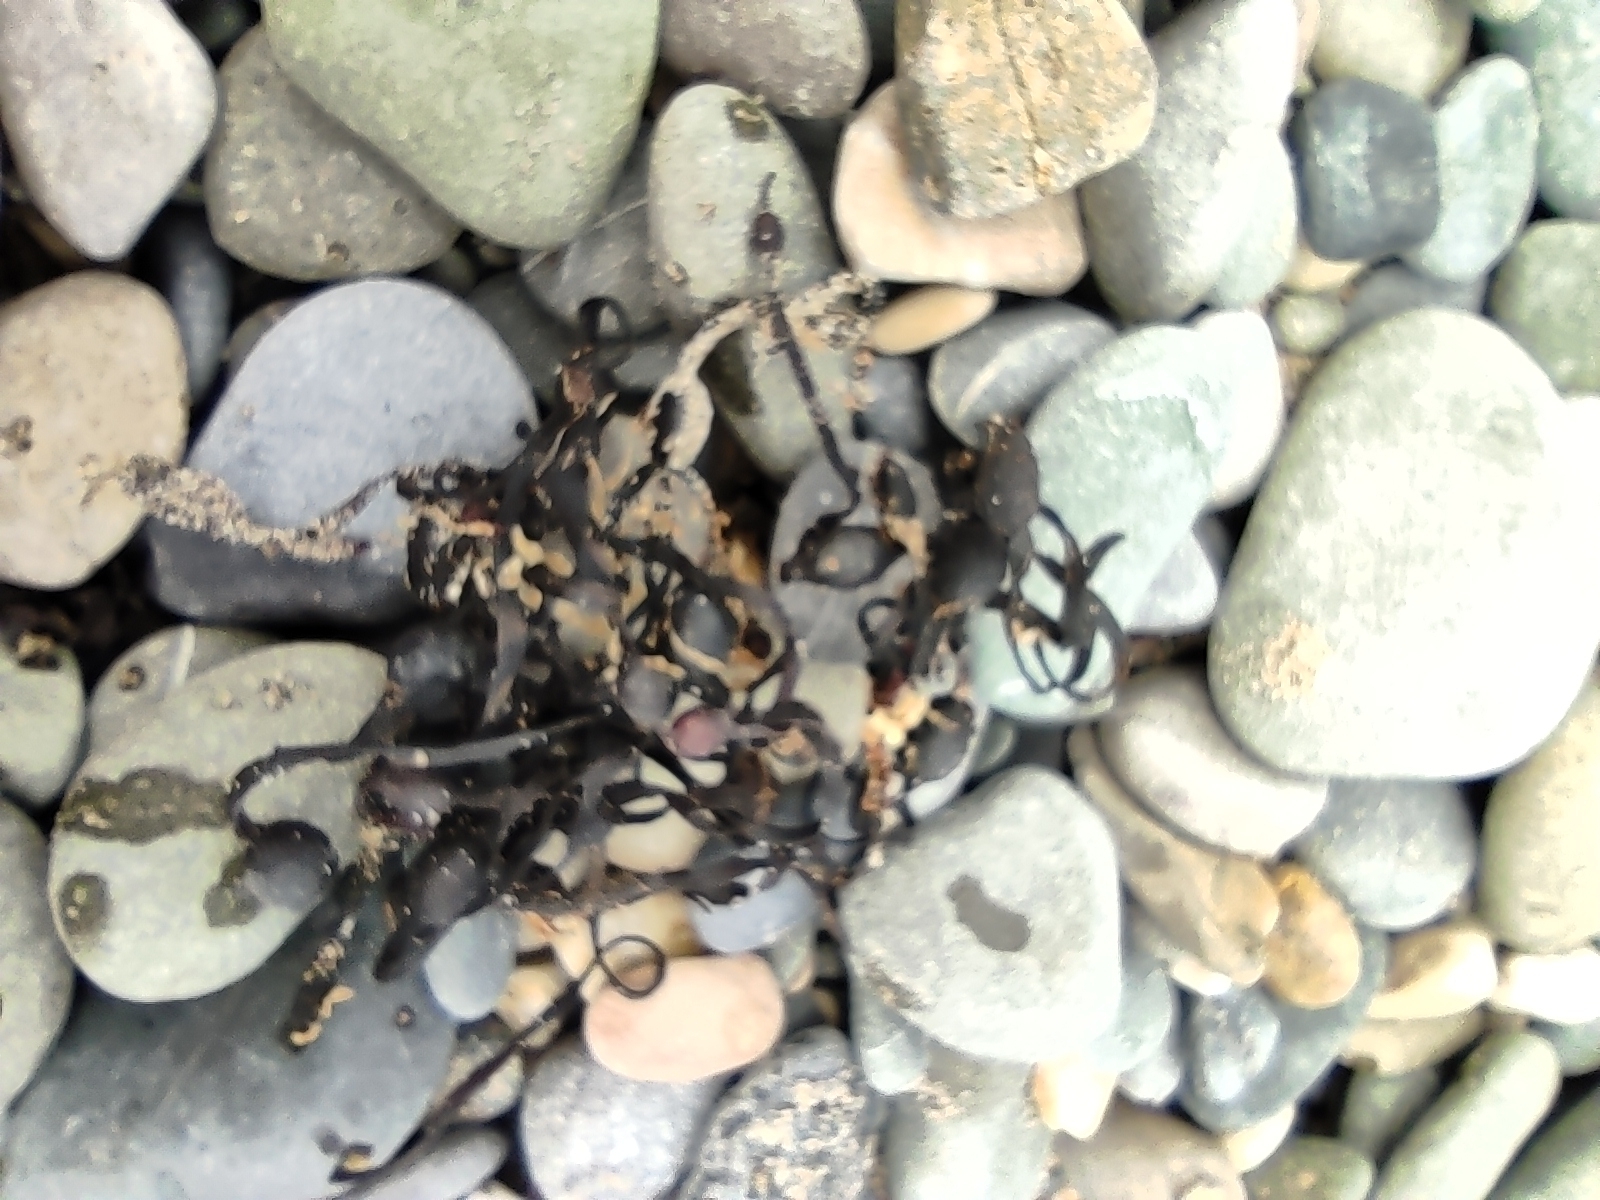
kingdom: Chromista
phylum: Ochrophyta
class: Phaeophyceae
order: Fucales
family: Fucaceae
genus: Ascophyllum
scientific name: Ascophyllum nodosum
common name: Knotted wrack
